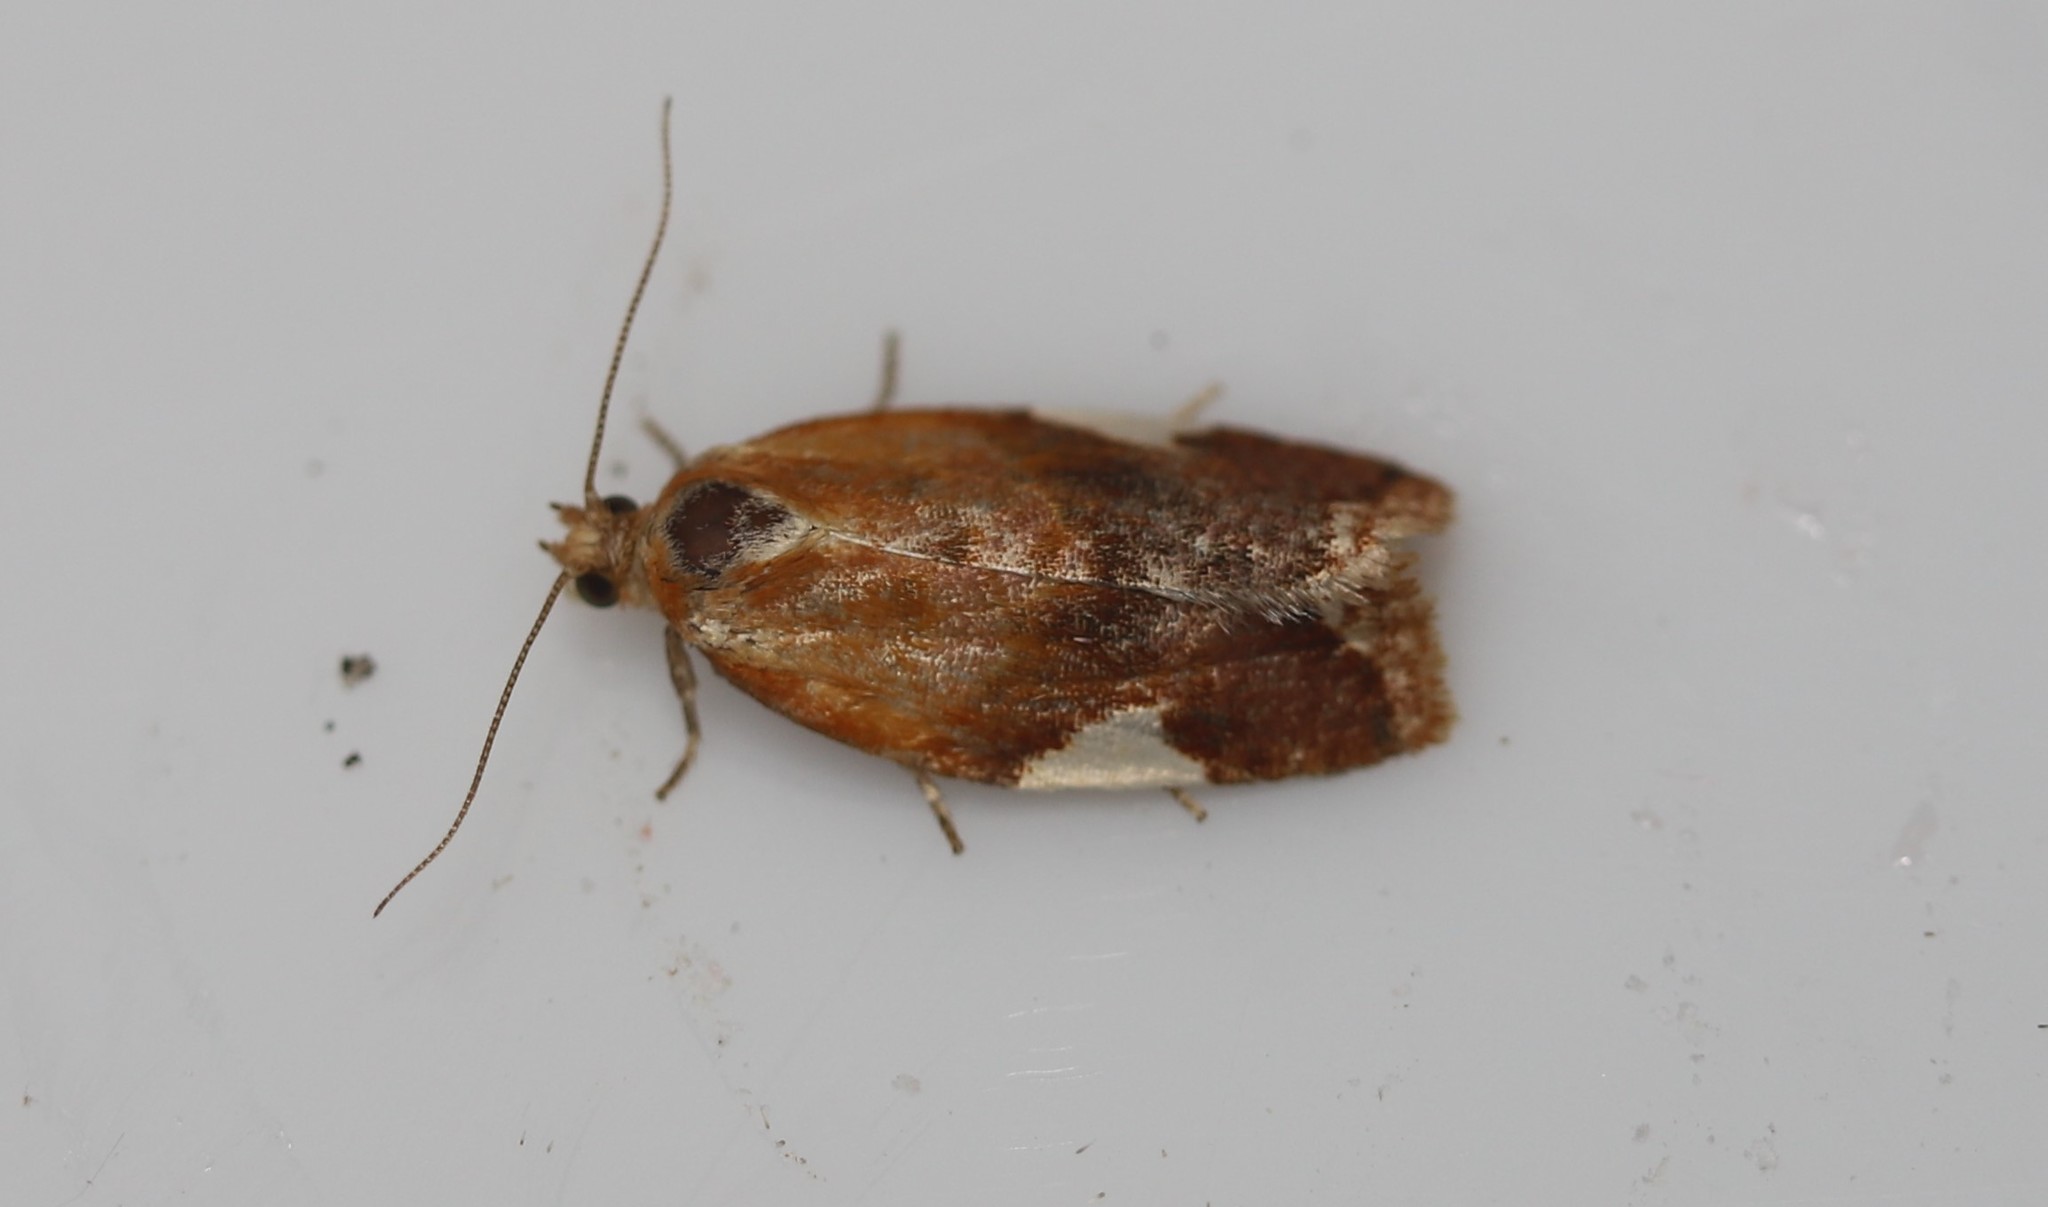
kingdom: Animalia
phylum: Arthropoda
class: Insecta
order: Lepidoptera
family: Tortricidae
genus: Clepsis
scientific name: Clepsis persicana
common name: White triangle tortrix
